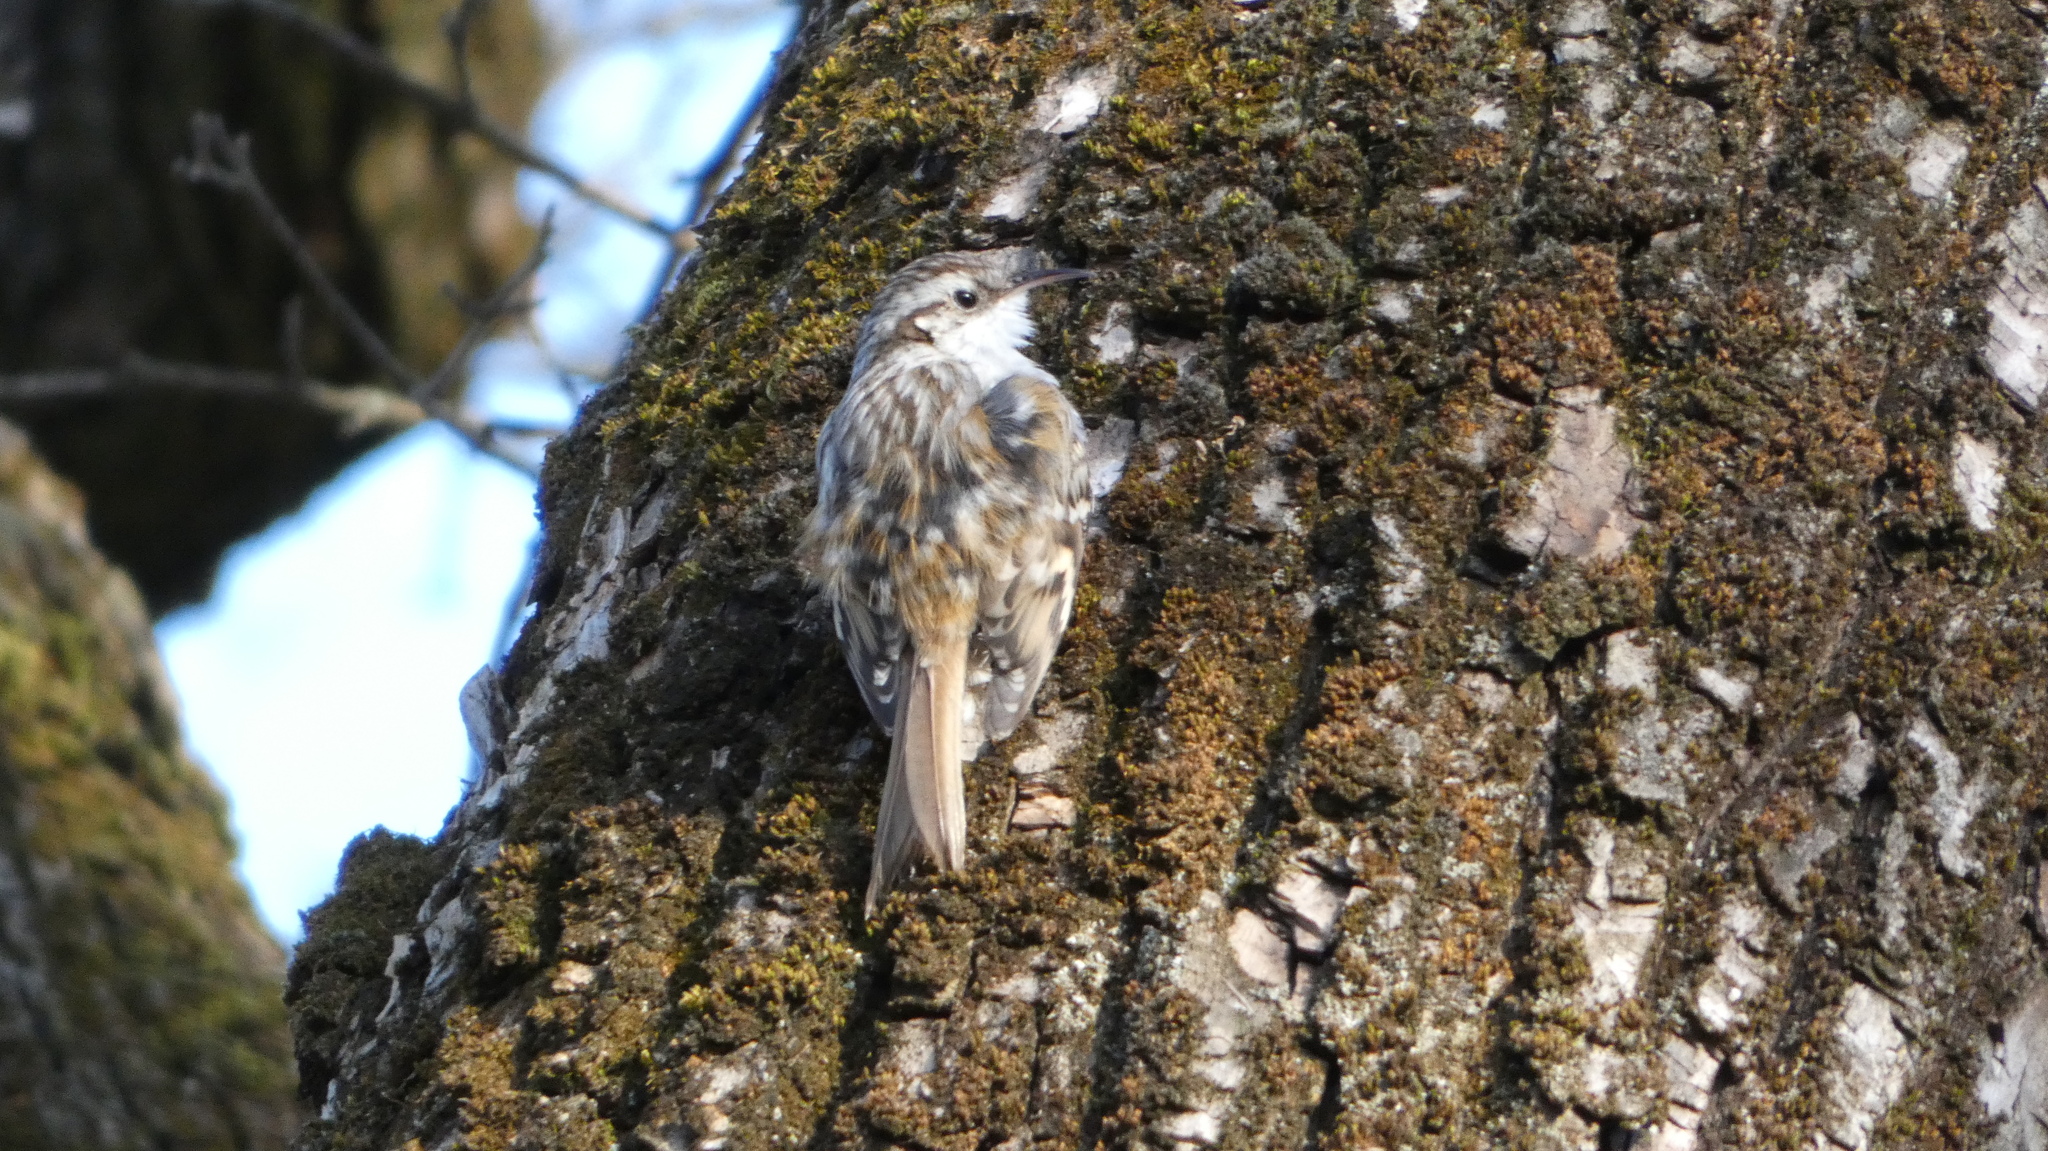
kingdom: Animalia
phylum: Chordata
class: Aves
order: Passeriformes
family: Certhiidae
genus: Certhia
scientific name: Certhia brachydactyla
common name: Short-toed treecreeper
